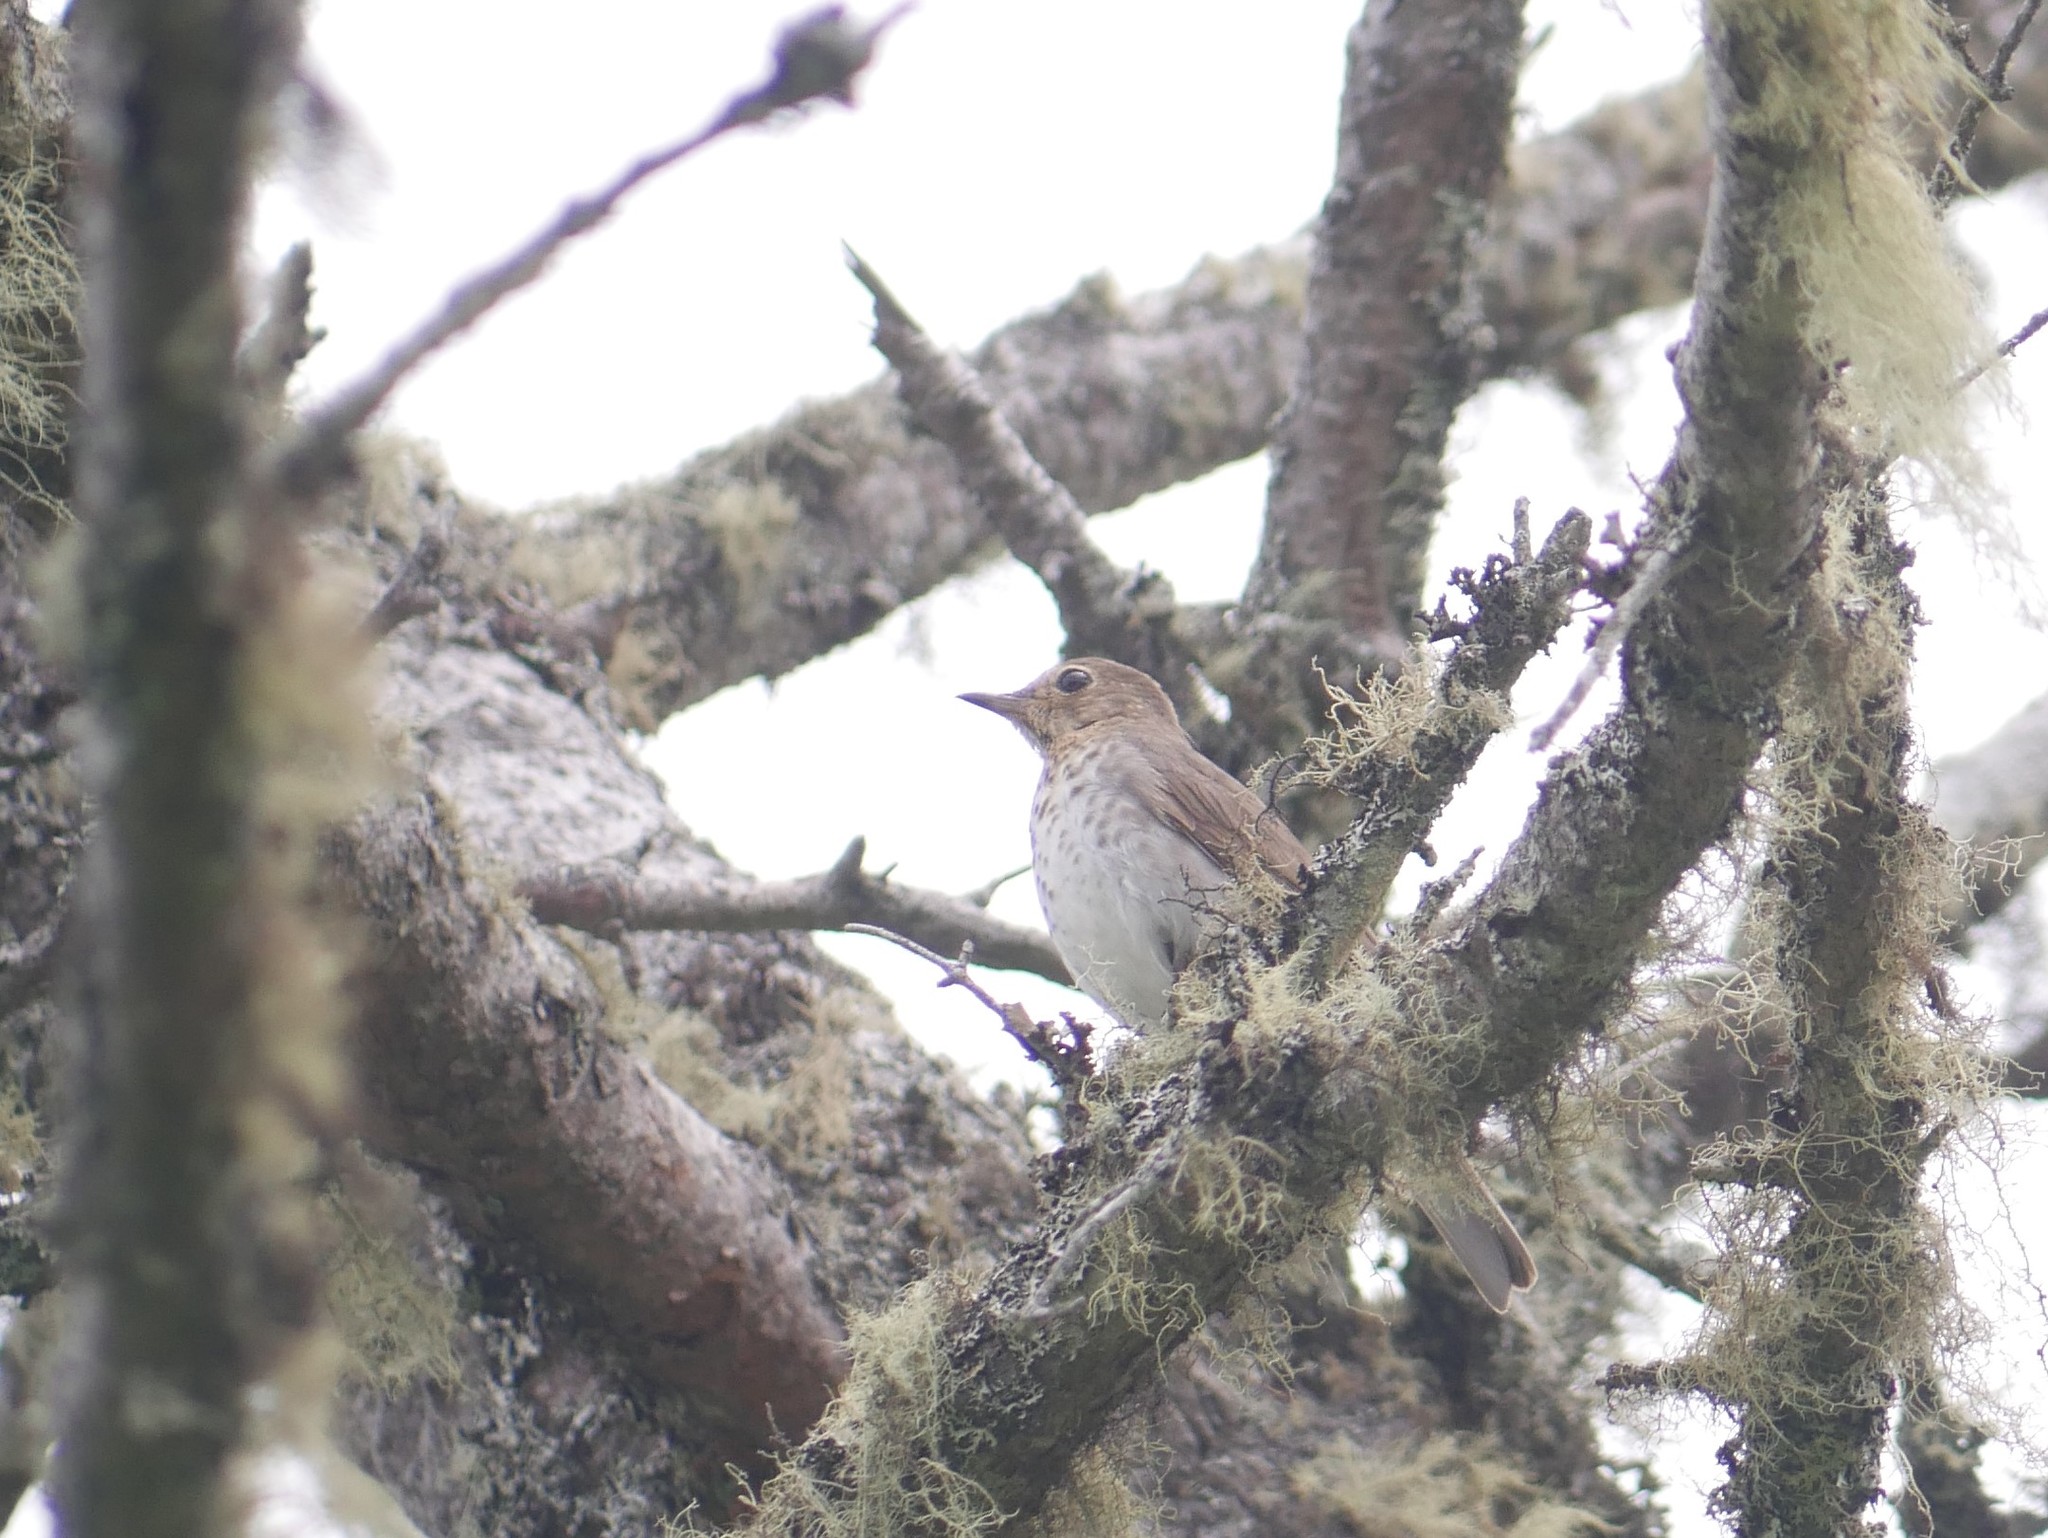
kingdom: Animalia
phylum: Chordata
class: Aves
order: Passeriformes
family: Turdidae
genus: Catharus
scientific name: Catharus ustulatus
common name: Swainson's thrush
